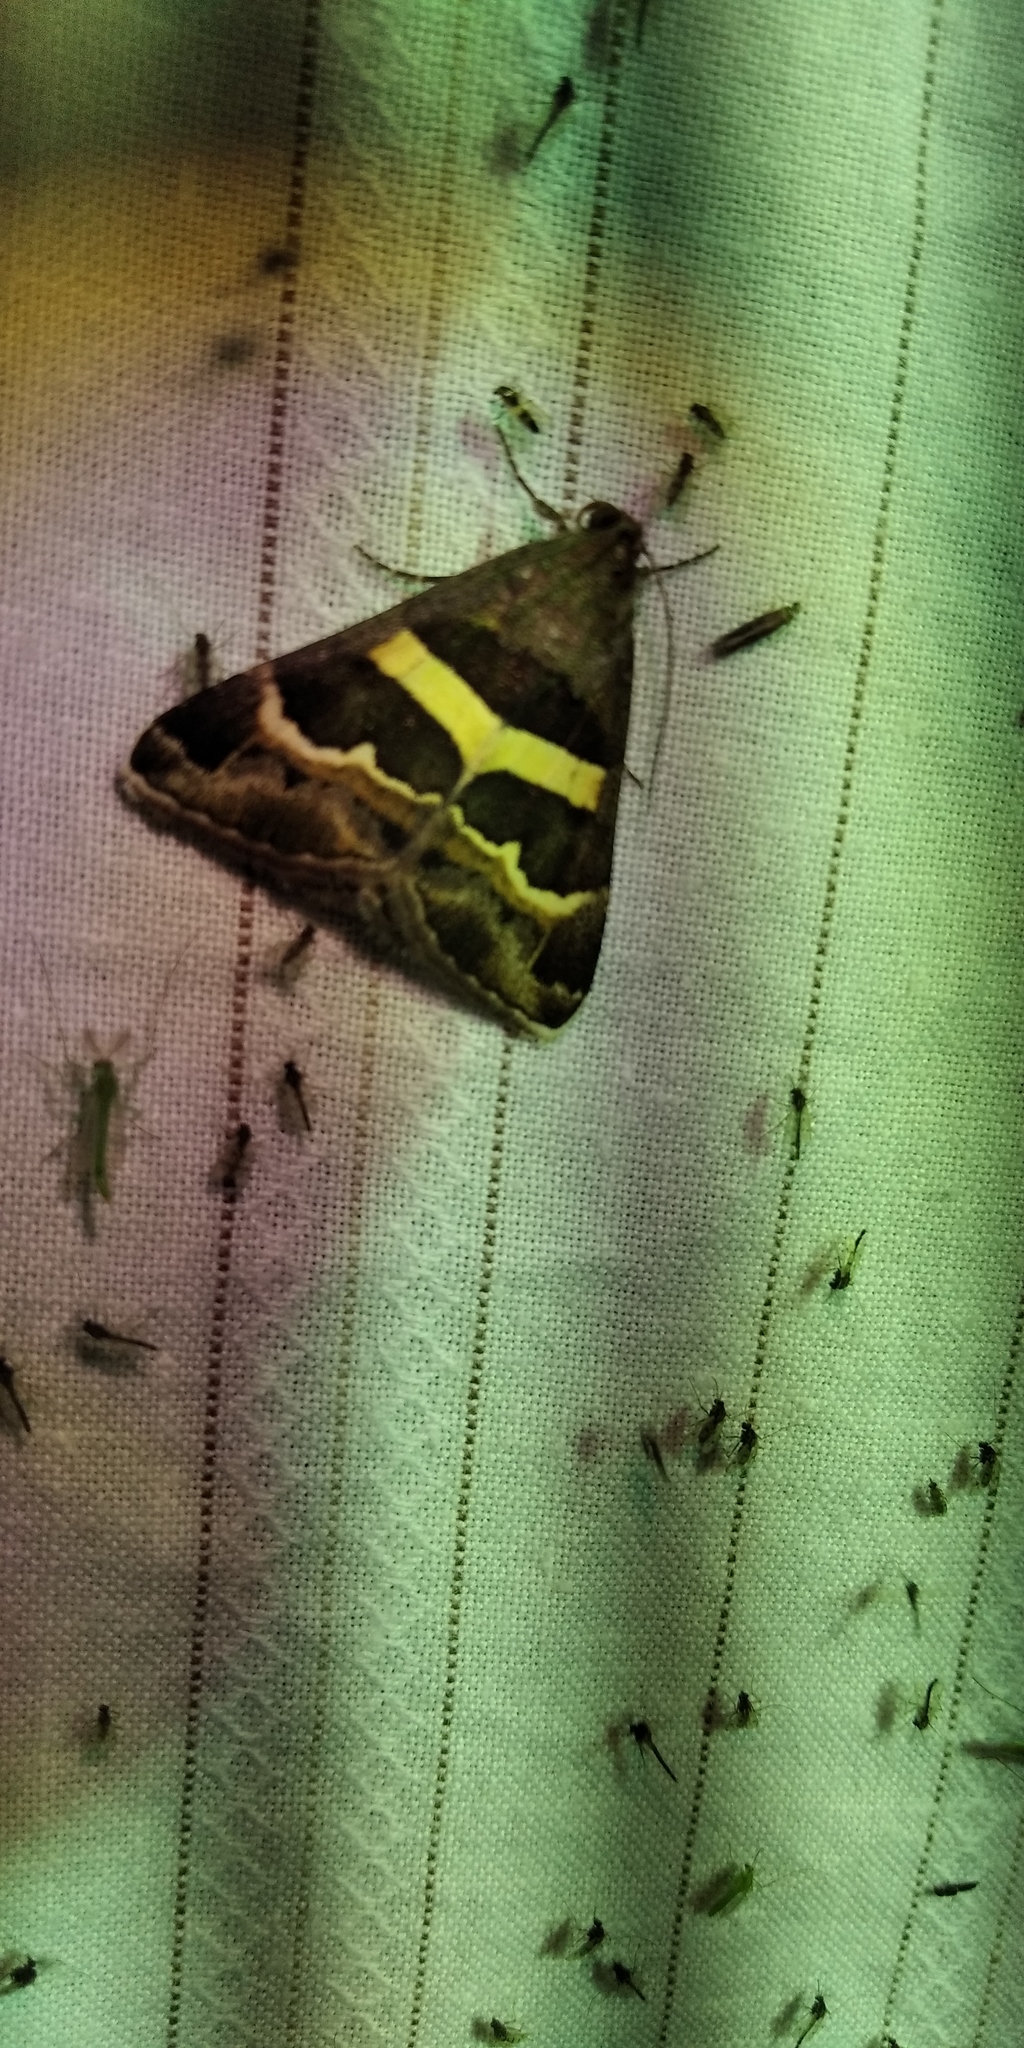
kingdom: Animalia
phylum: Arthropoda
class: Insecta
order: Lepidoptera
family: Erebidae
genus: Grammodes
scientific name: Grammodes stolida
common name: Geometrician
